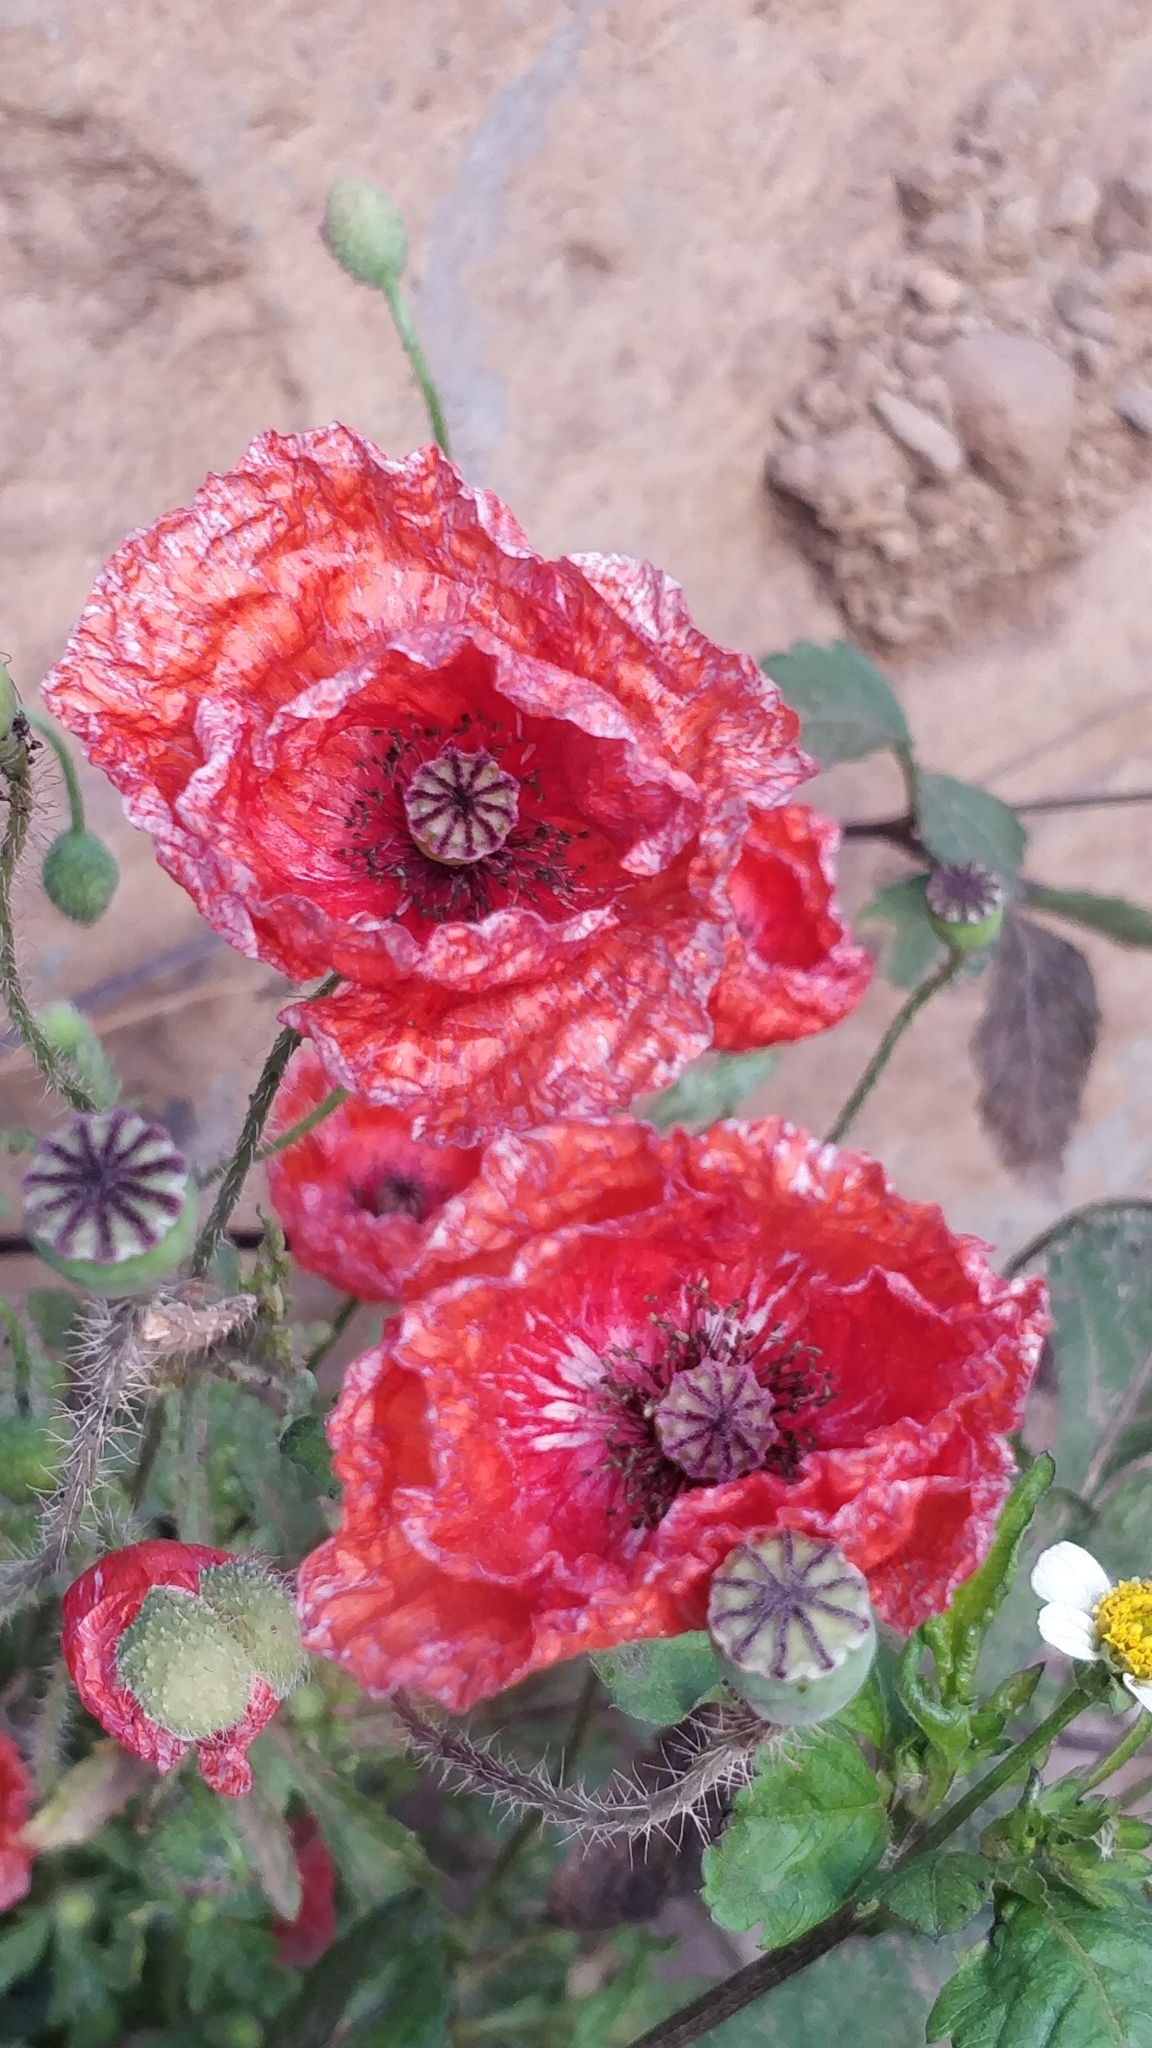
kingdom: Plantae
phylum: Tracheophyta
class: Magnoliopsida
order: Ranunculales
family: Papaveraceae
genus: Papaver
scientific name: Papaver rhoeas
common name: Corn poppy
